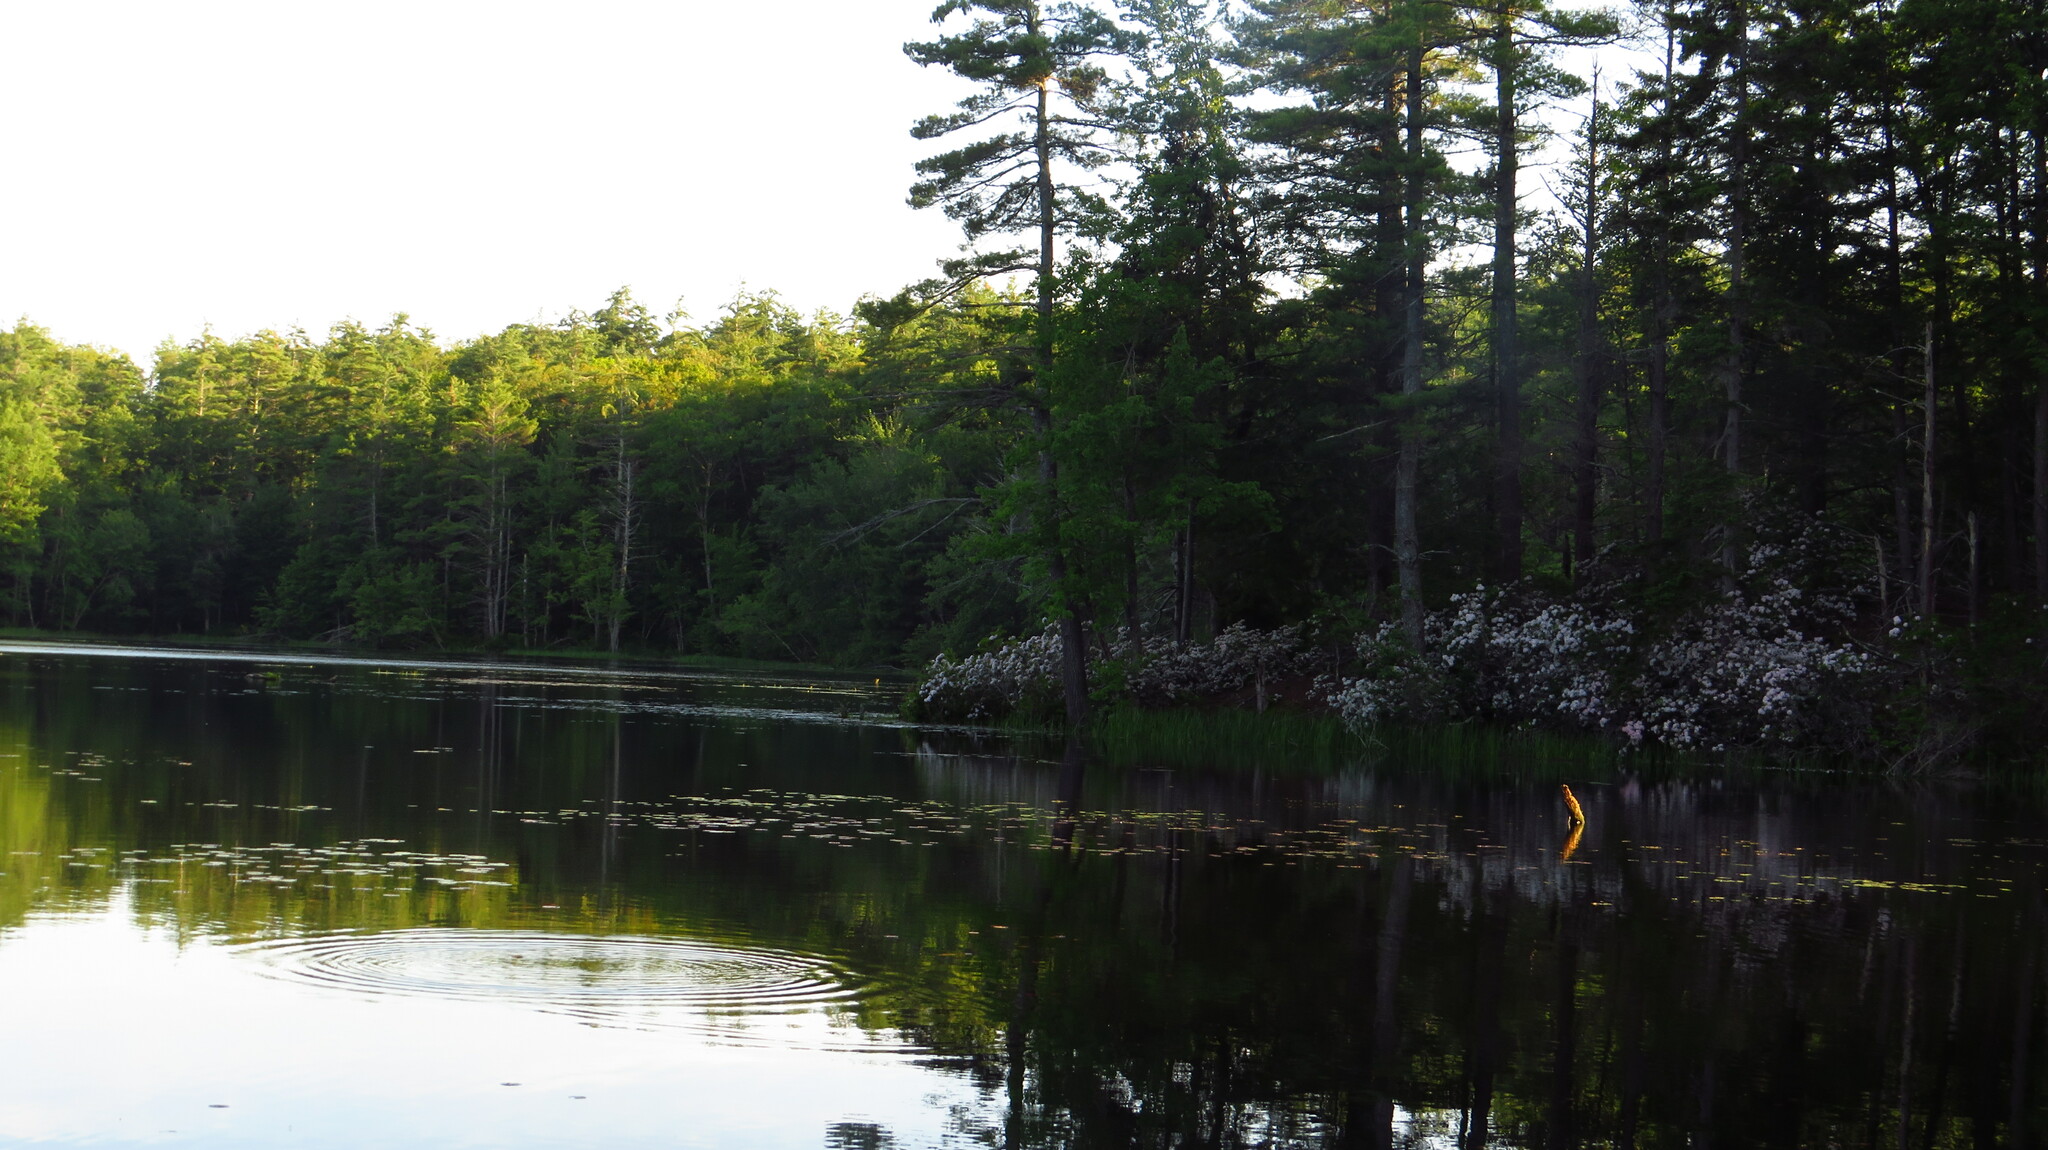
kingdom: Plantae
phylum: Tracheophyta
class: Magnoliopsida
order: Ericales
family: Ericaceae
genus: Kalmia
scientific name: Kalmia latifolia
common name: Mountain-laurel
